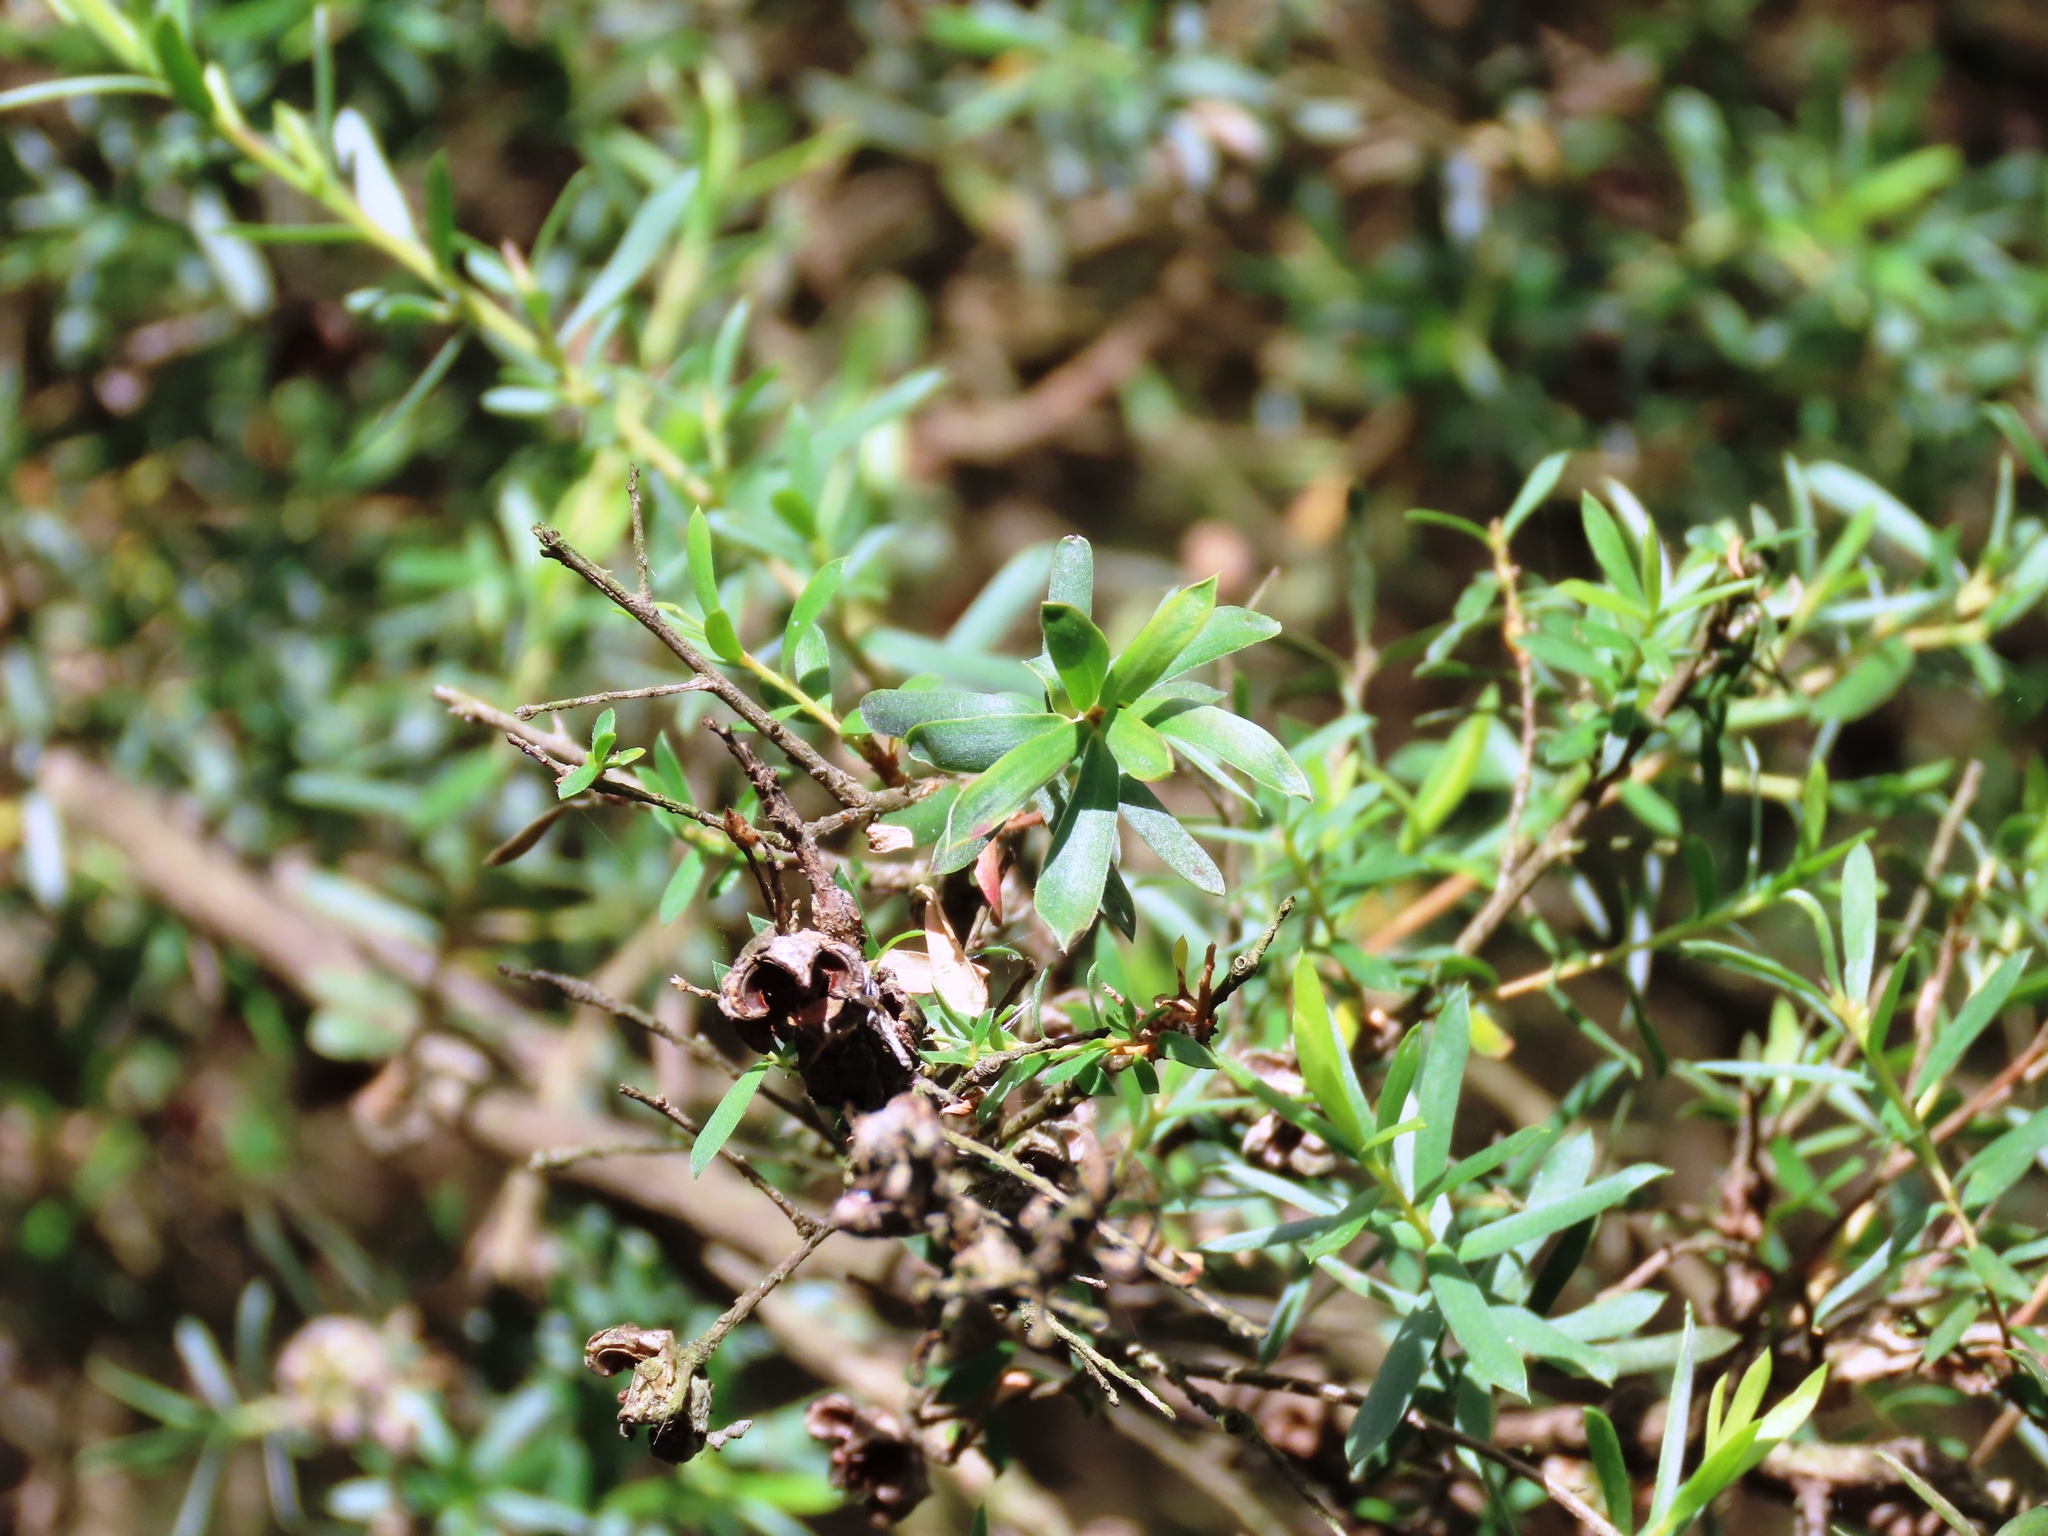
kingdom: Plantae
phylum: Tracheophyta
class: Magnoliopsida
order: Myrtales
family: Myrtaceae
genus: Leptospermum
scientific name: Leptospermum lanigerum
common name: Woolly tea-tree
